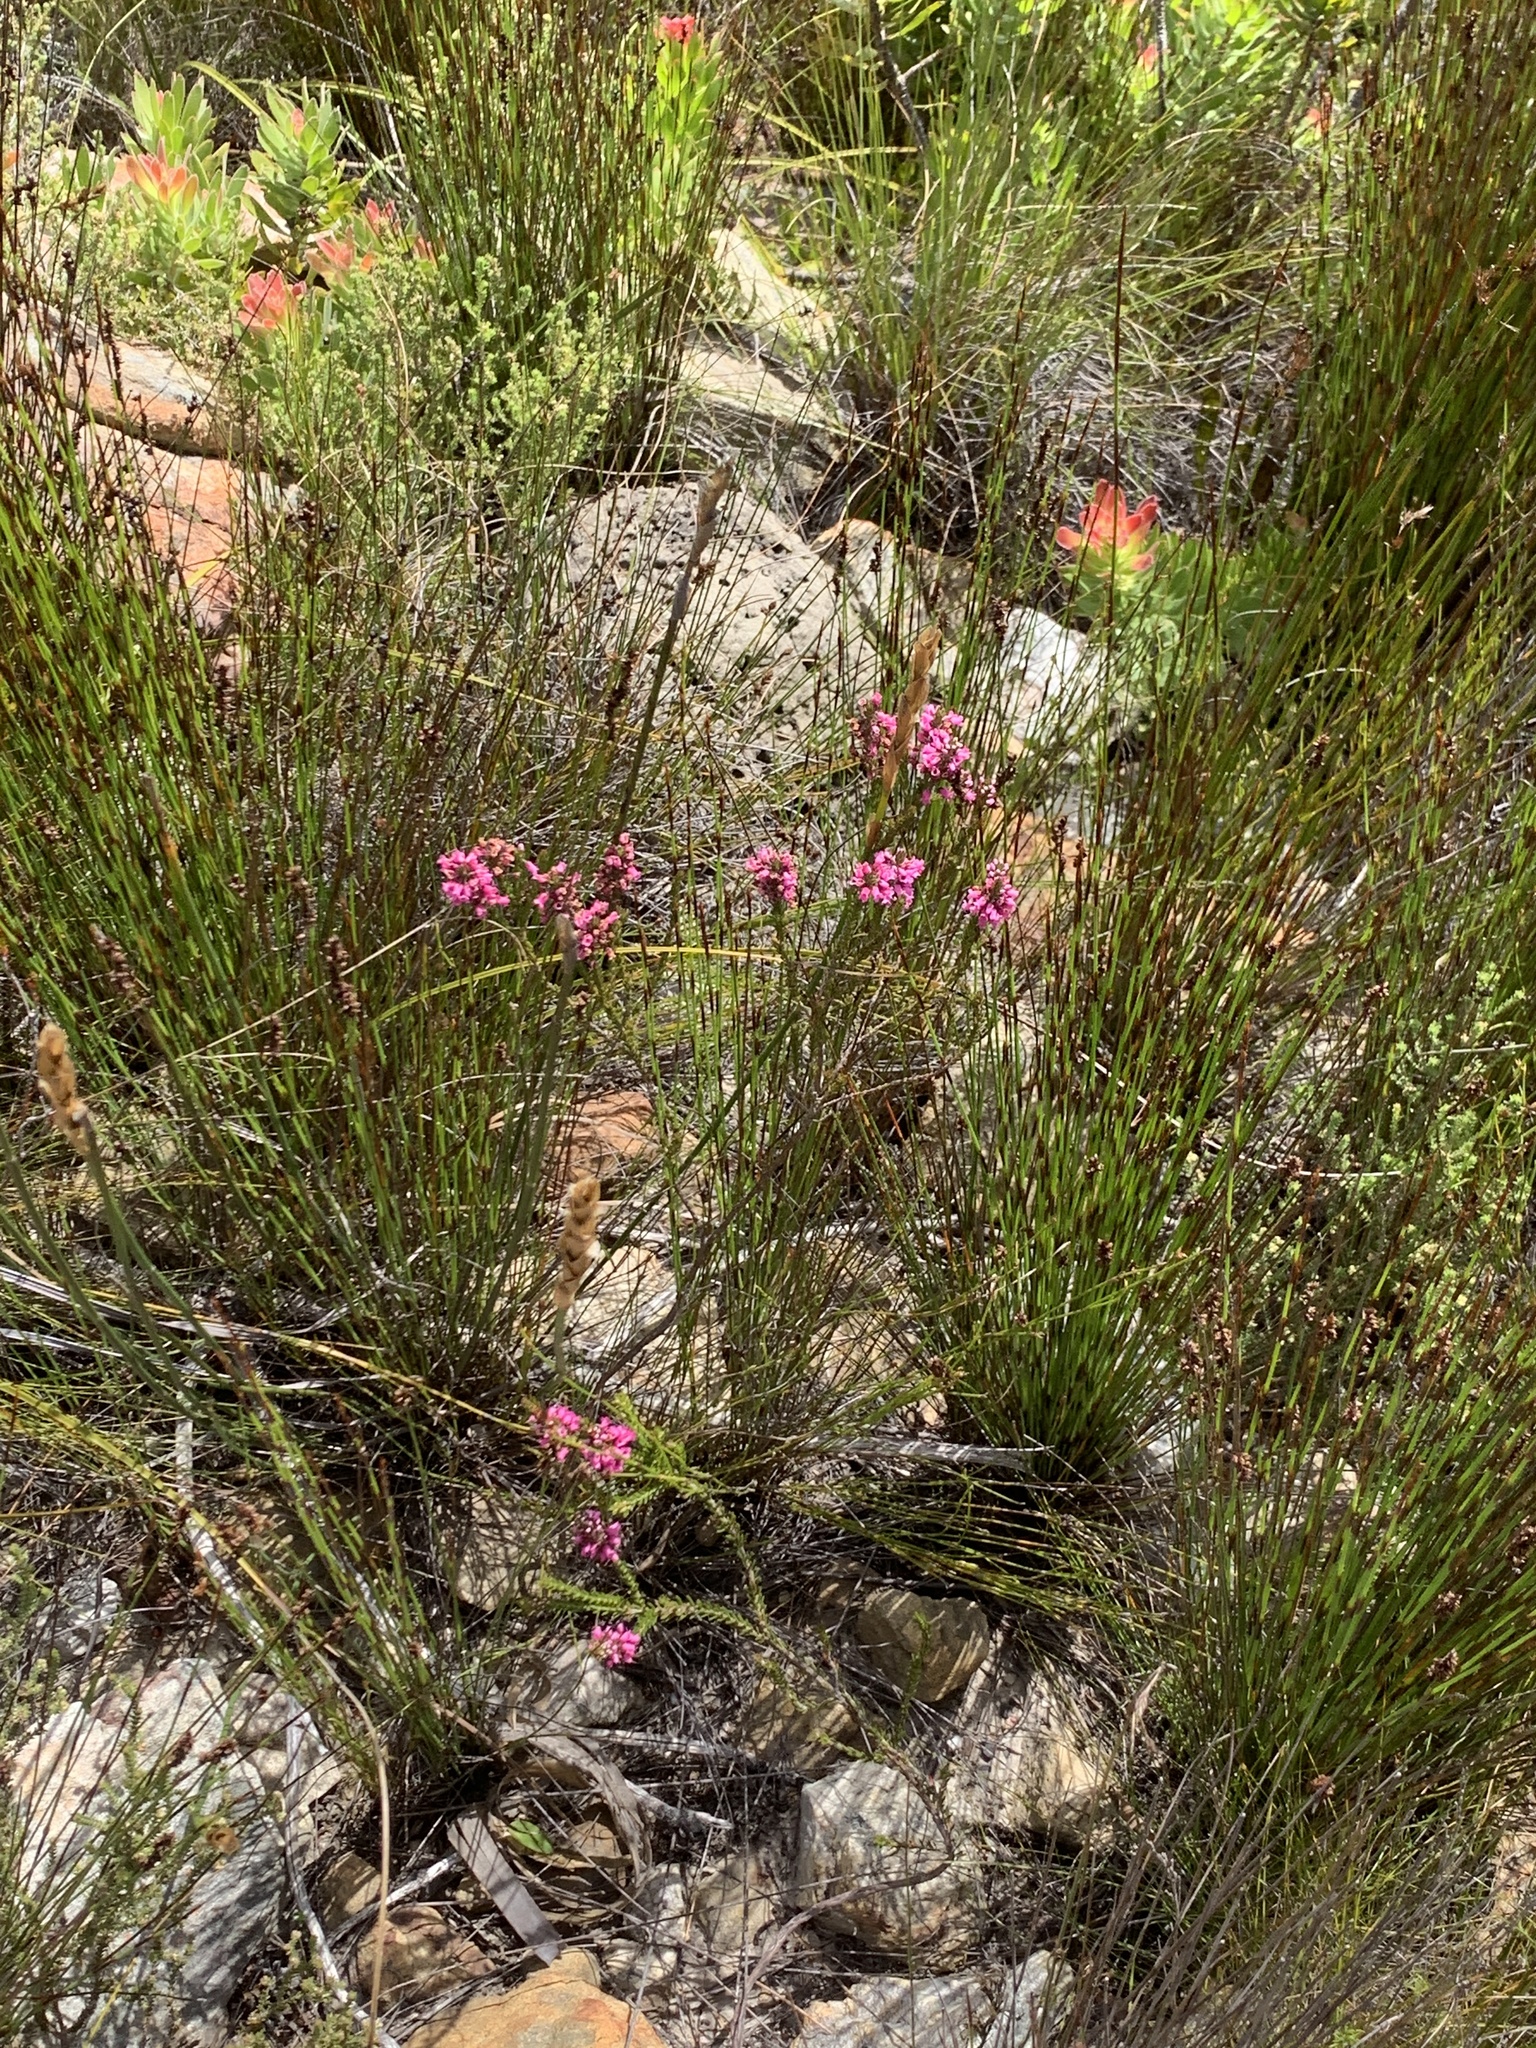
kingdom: Plantae
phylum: Tracheophyta
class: Magnoliopsida
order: Ericales
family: Ericaceae
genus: Erica
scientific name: Erica pulchella
